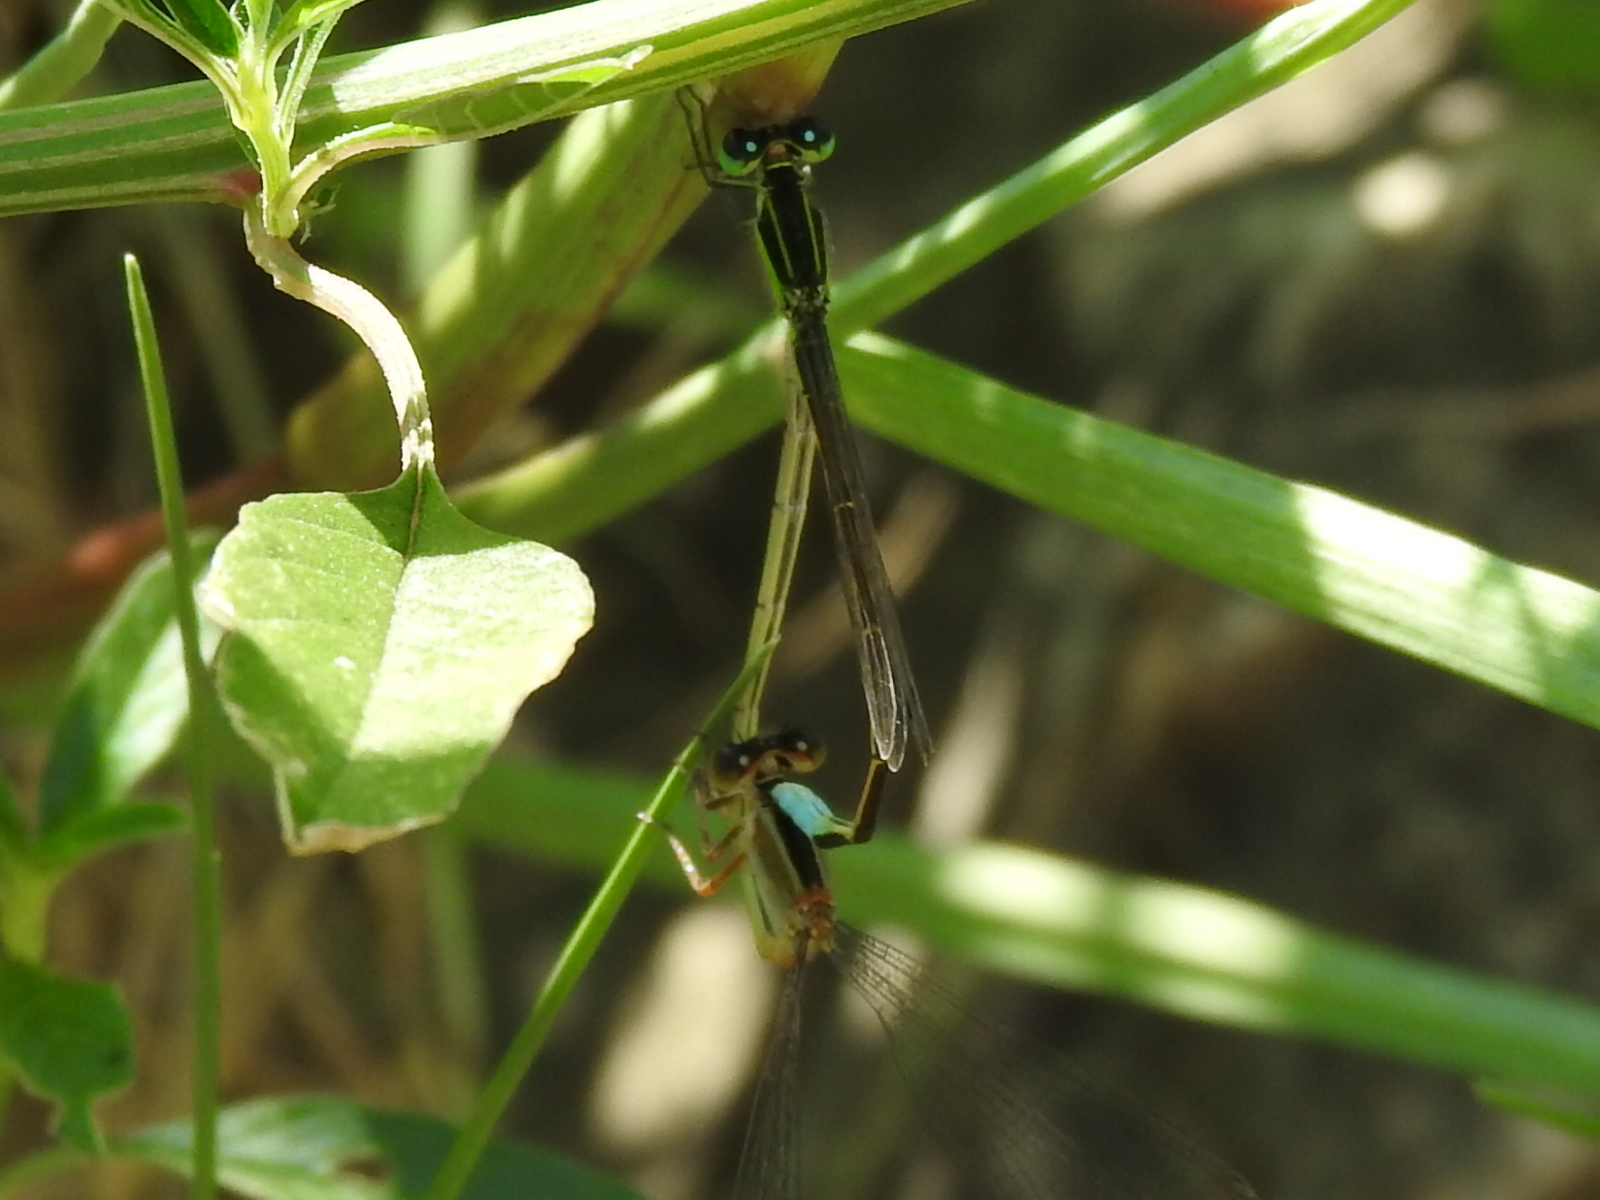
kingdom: Animalia
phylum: Arthropoda
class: Insecta
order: Odonata
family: Coenagrionidae
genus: Ischnura
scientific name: Ischnura ramburii
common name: Rambur's forktail
